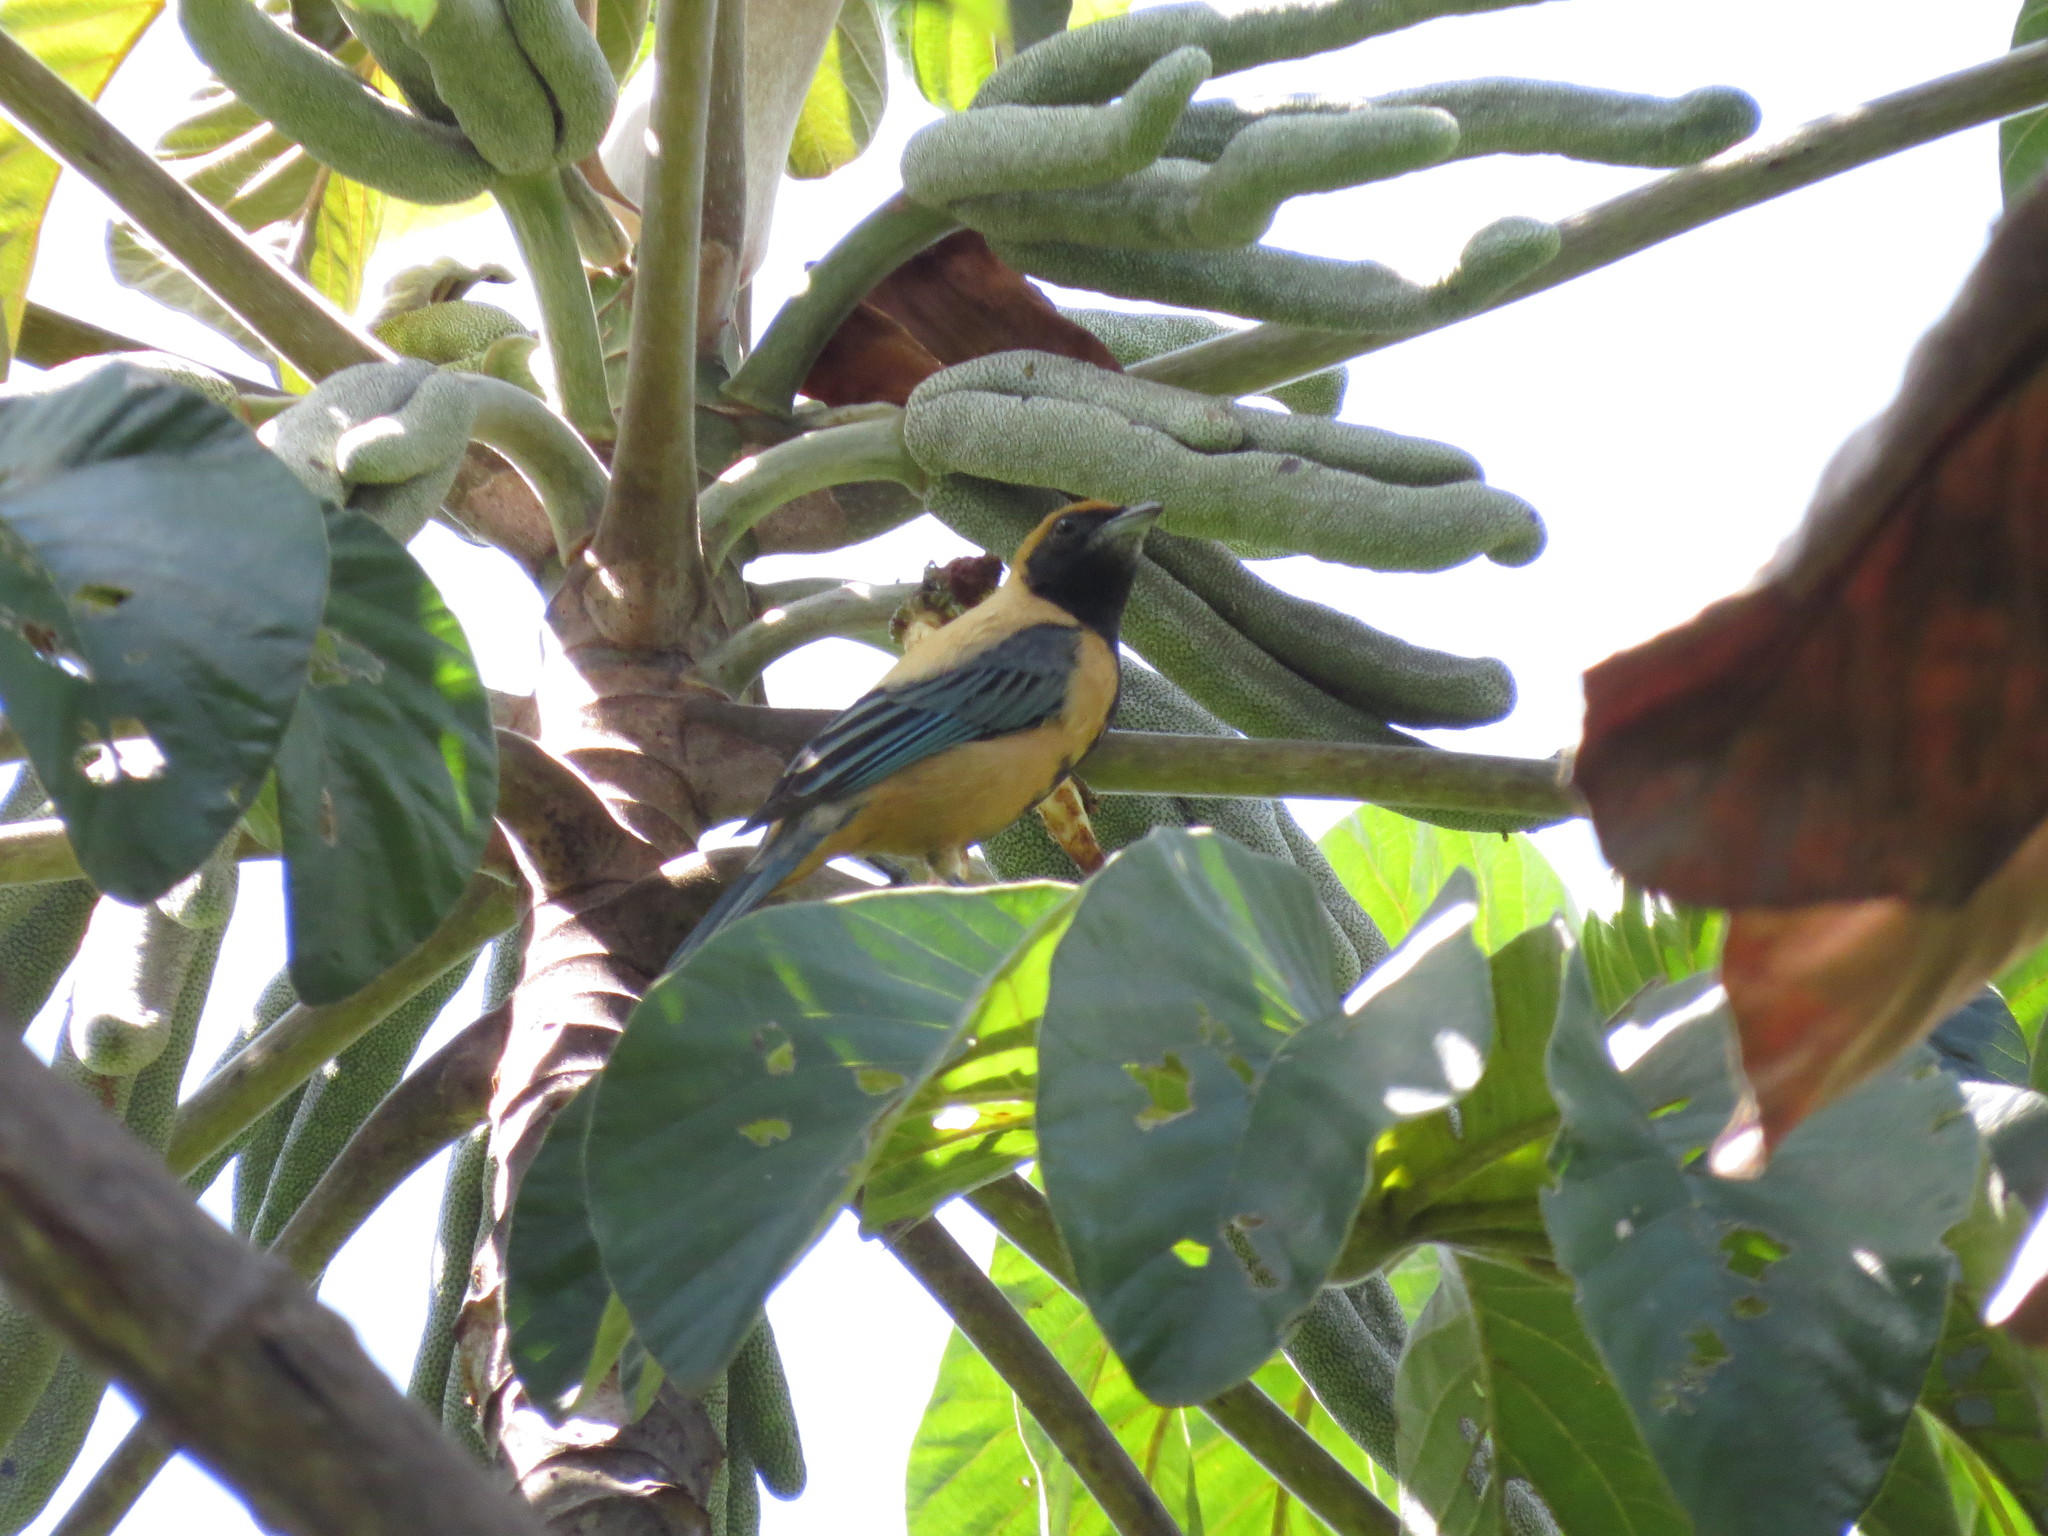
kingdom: Animalia
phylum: Chordata
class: Aves
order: Passeriformes
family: Thraupidae
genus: Stilpnia
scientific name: Stilpnia cayana
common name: Burnished-buff tanager
